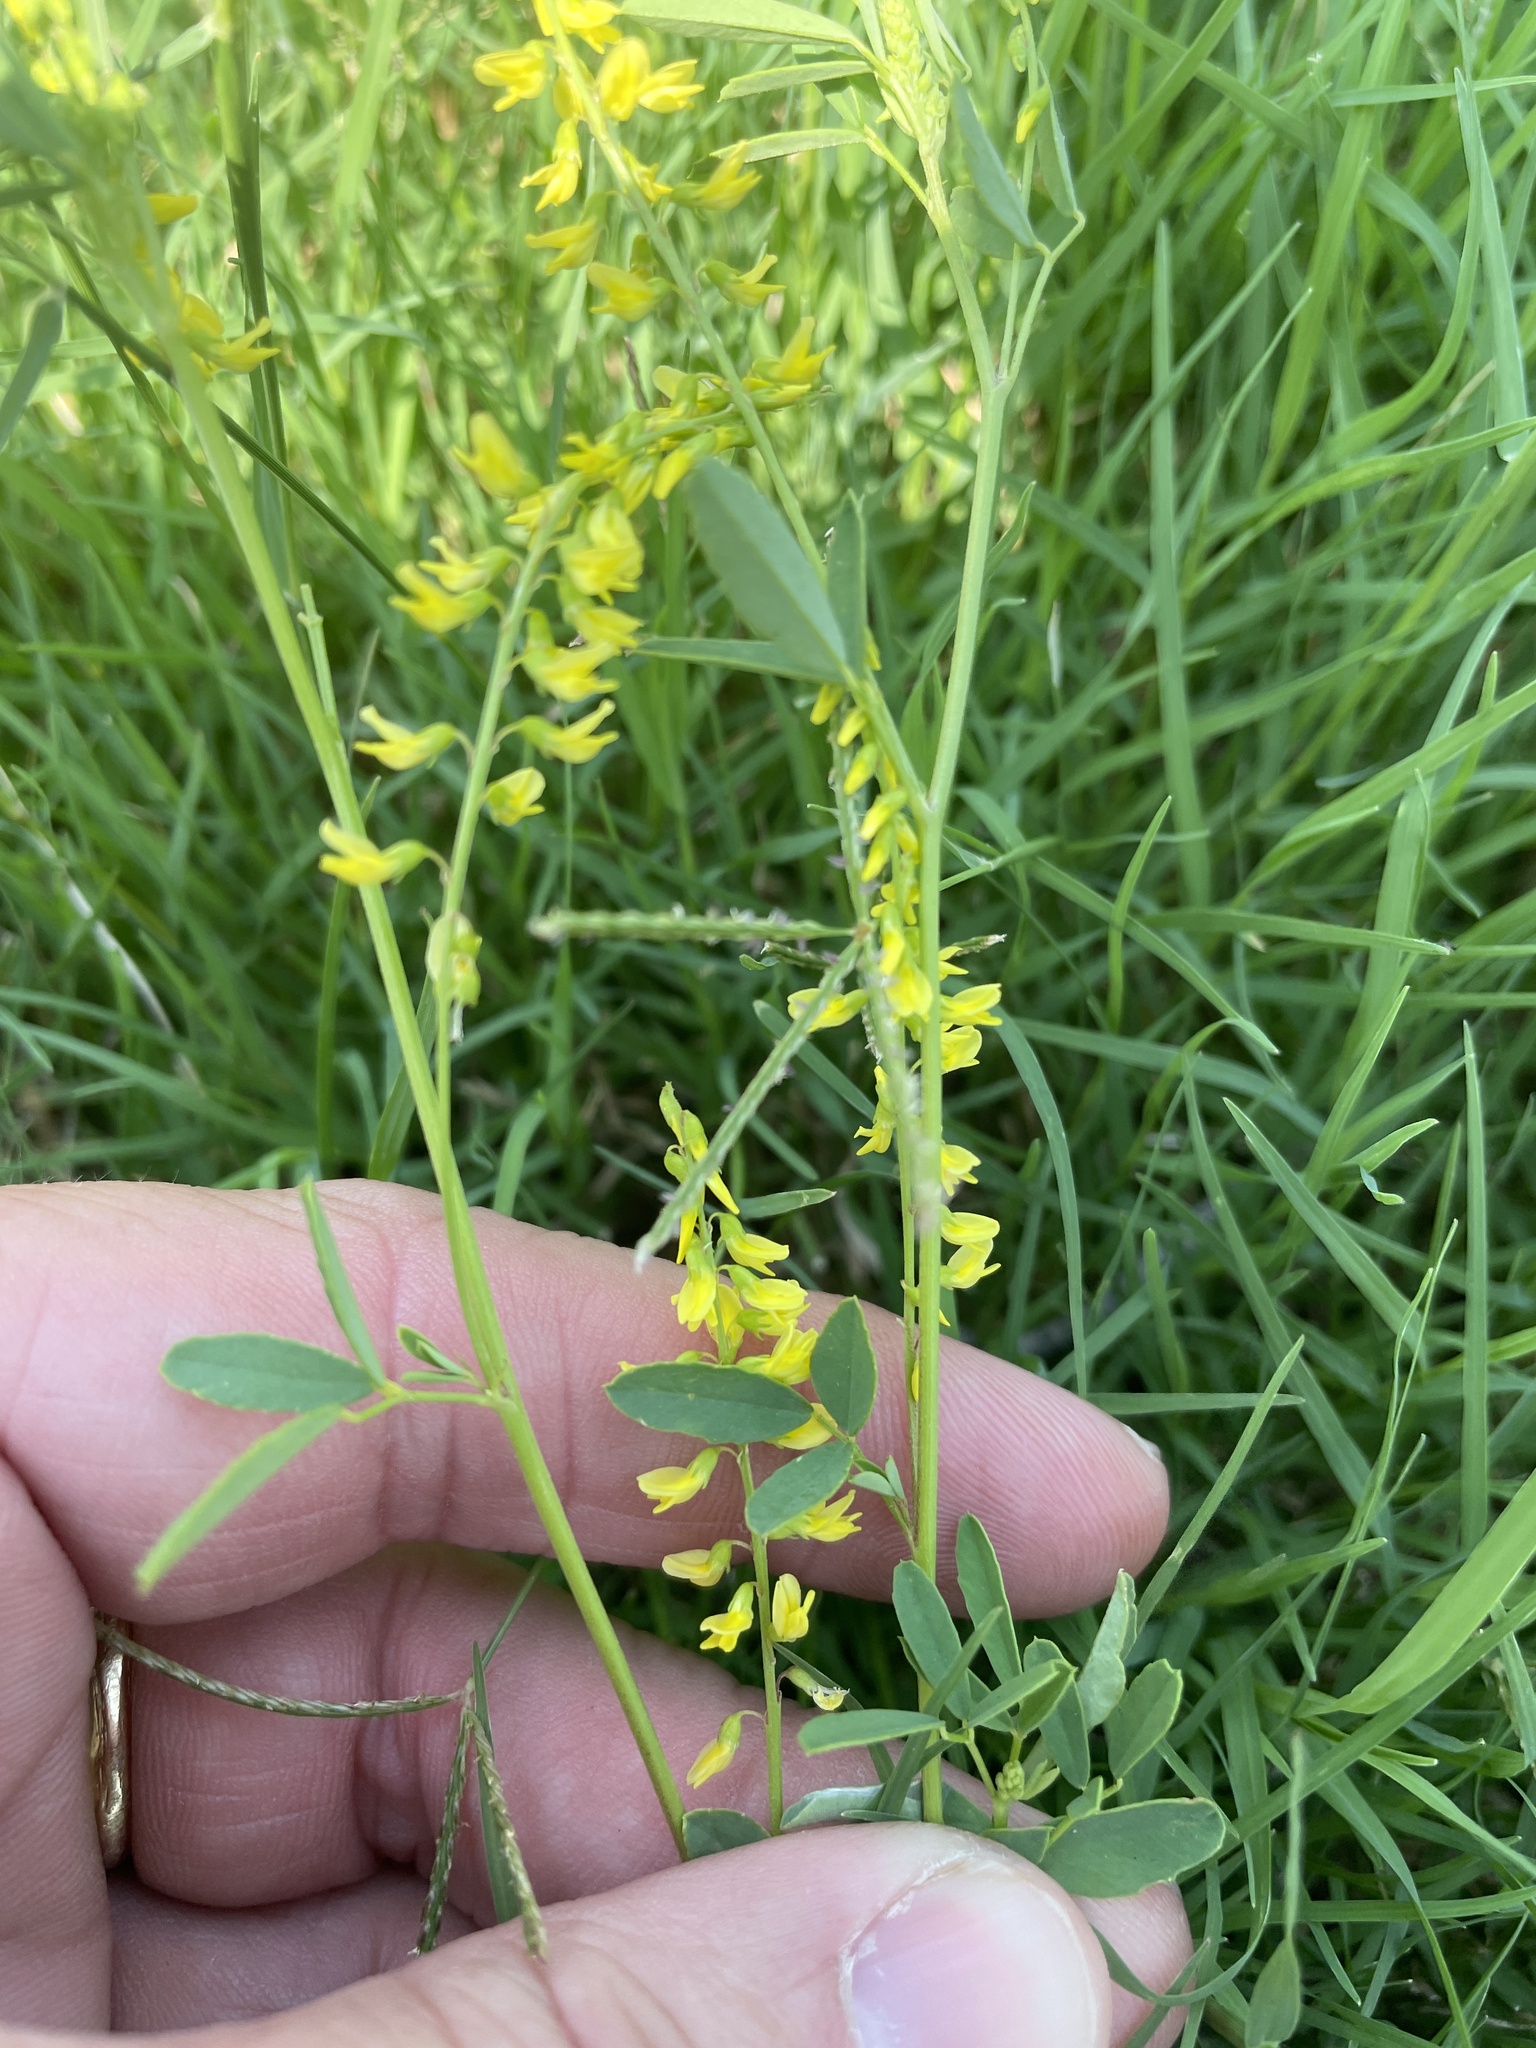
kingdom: Plantae
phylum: Tracheophyta
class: Magnoliopsida
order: Fabales
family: Fabaceae
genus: Melilotus
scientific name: Melilotus officinalis
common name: Sweetclover
